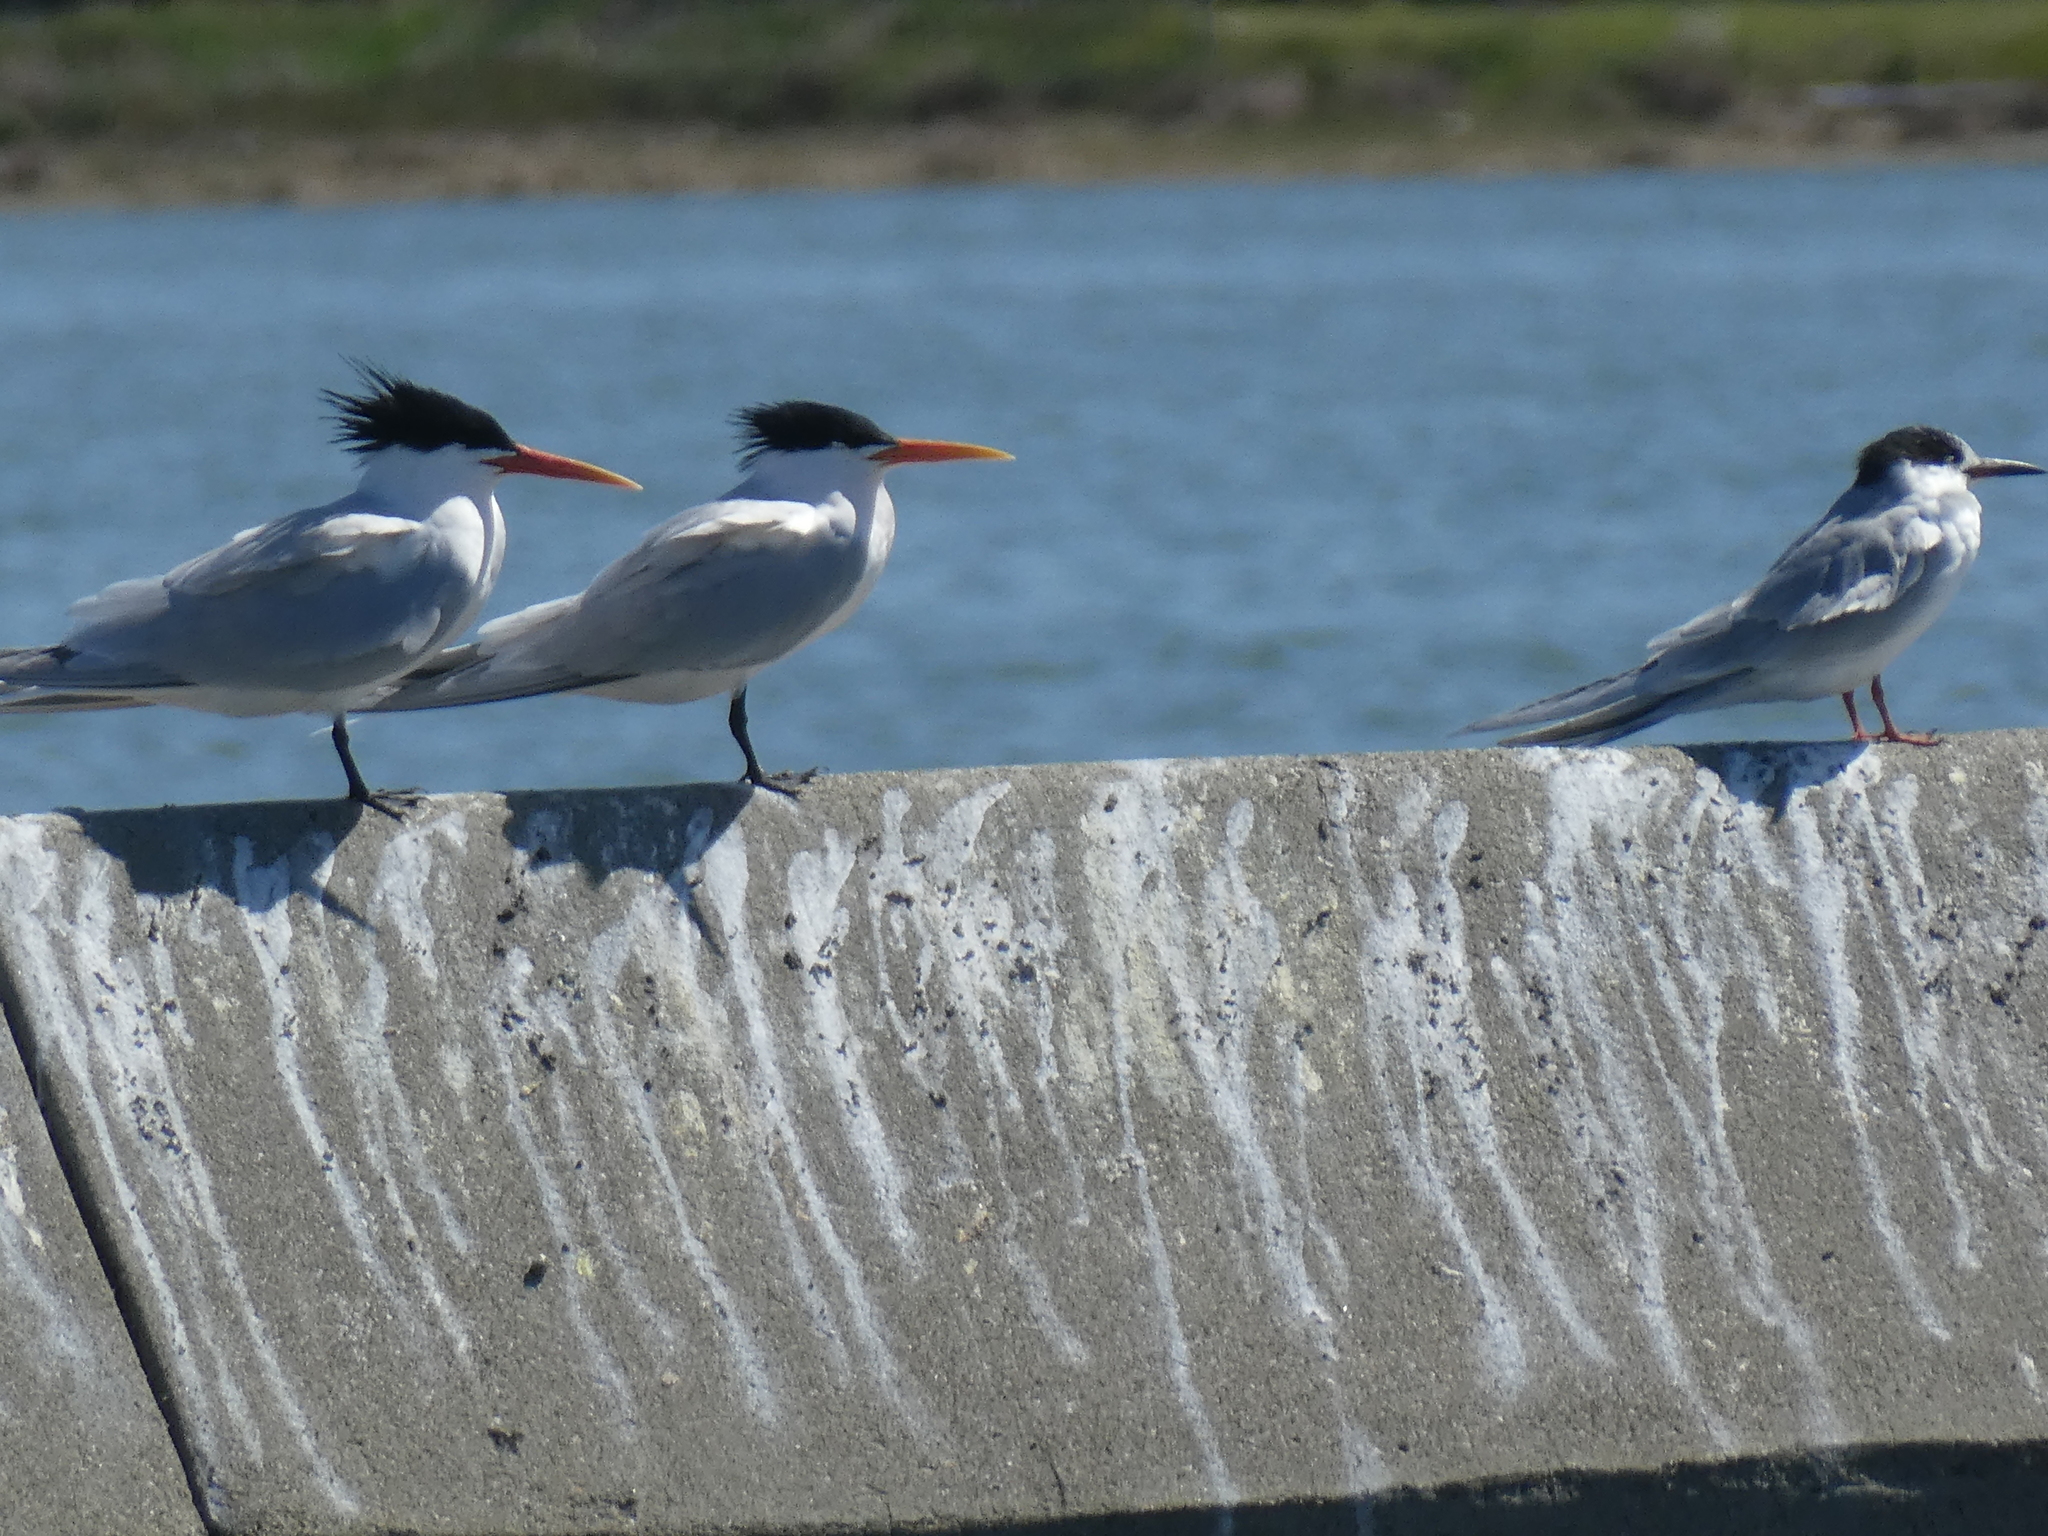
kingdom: Animalia
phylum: Chordata
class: Aves
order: Charadriiformes
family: Laridae
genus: Thalasseus
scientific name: Thalasseus elegans
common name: Elegant tern
